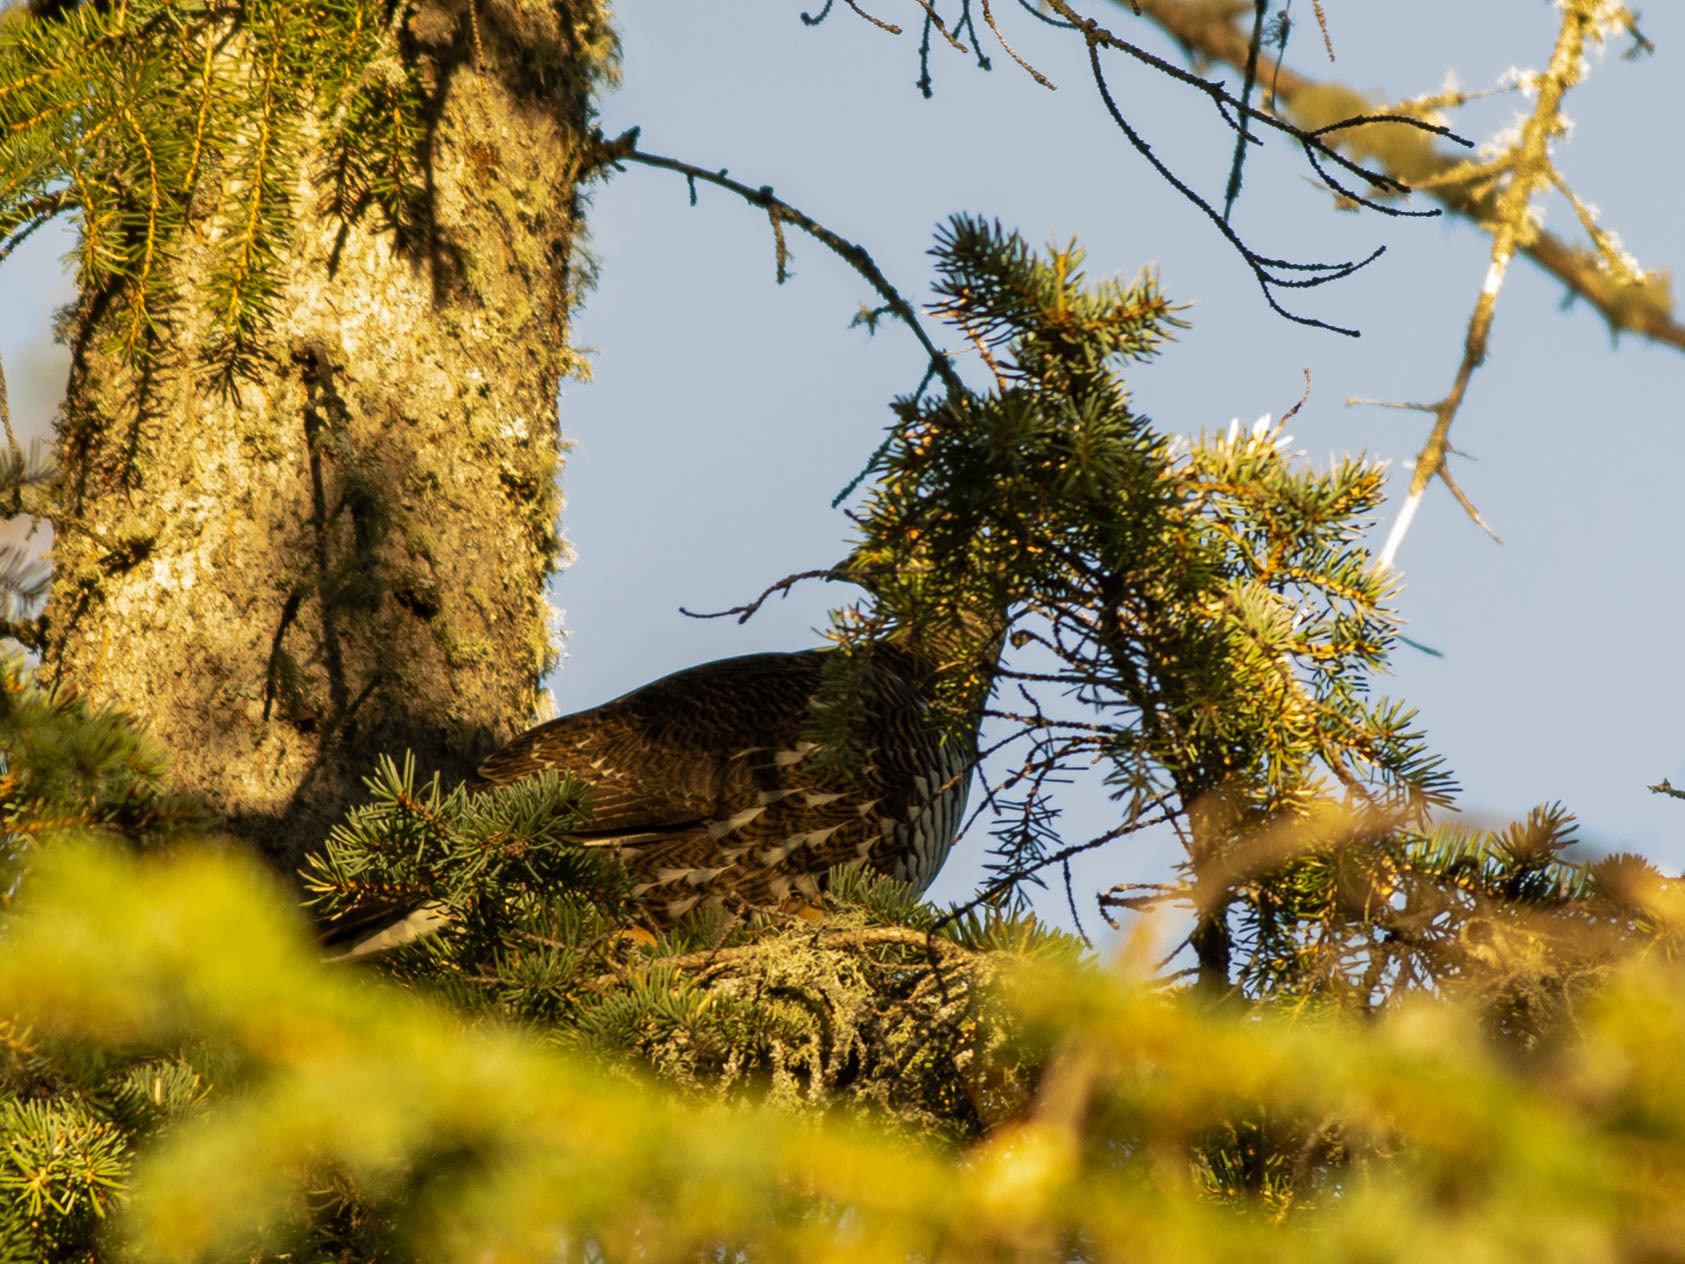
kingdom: Animalia
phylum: Chordata
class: Aves
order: Galliformes
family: Phasianidae
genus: Canachites
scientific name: Canachites canadensis
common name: Spruce grouse
